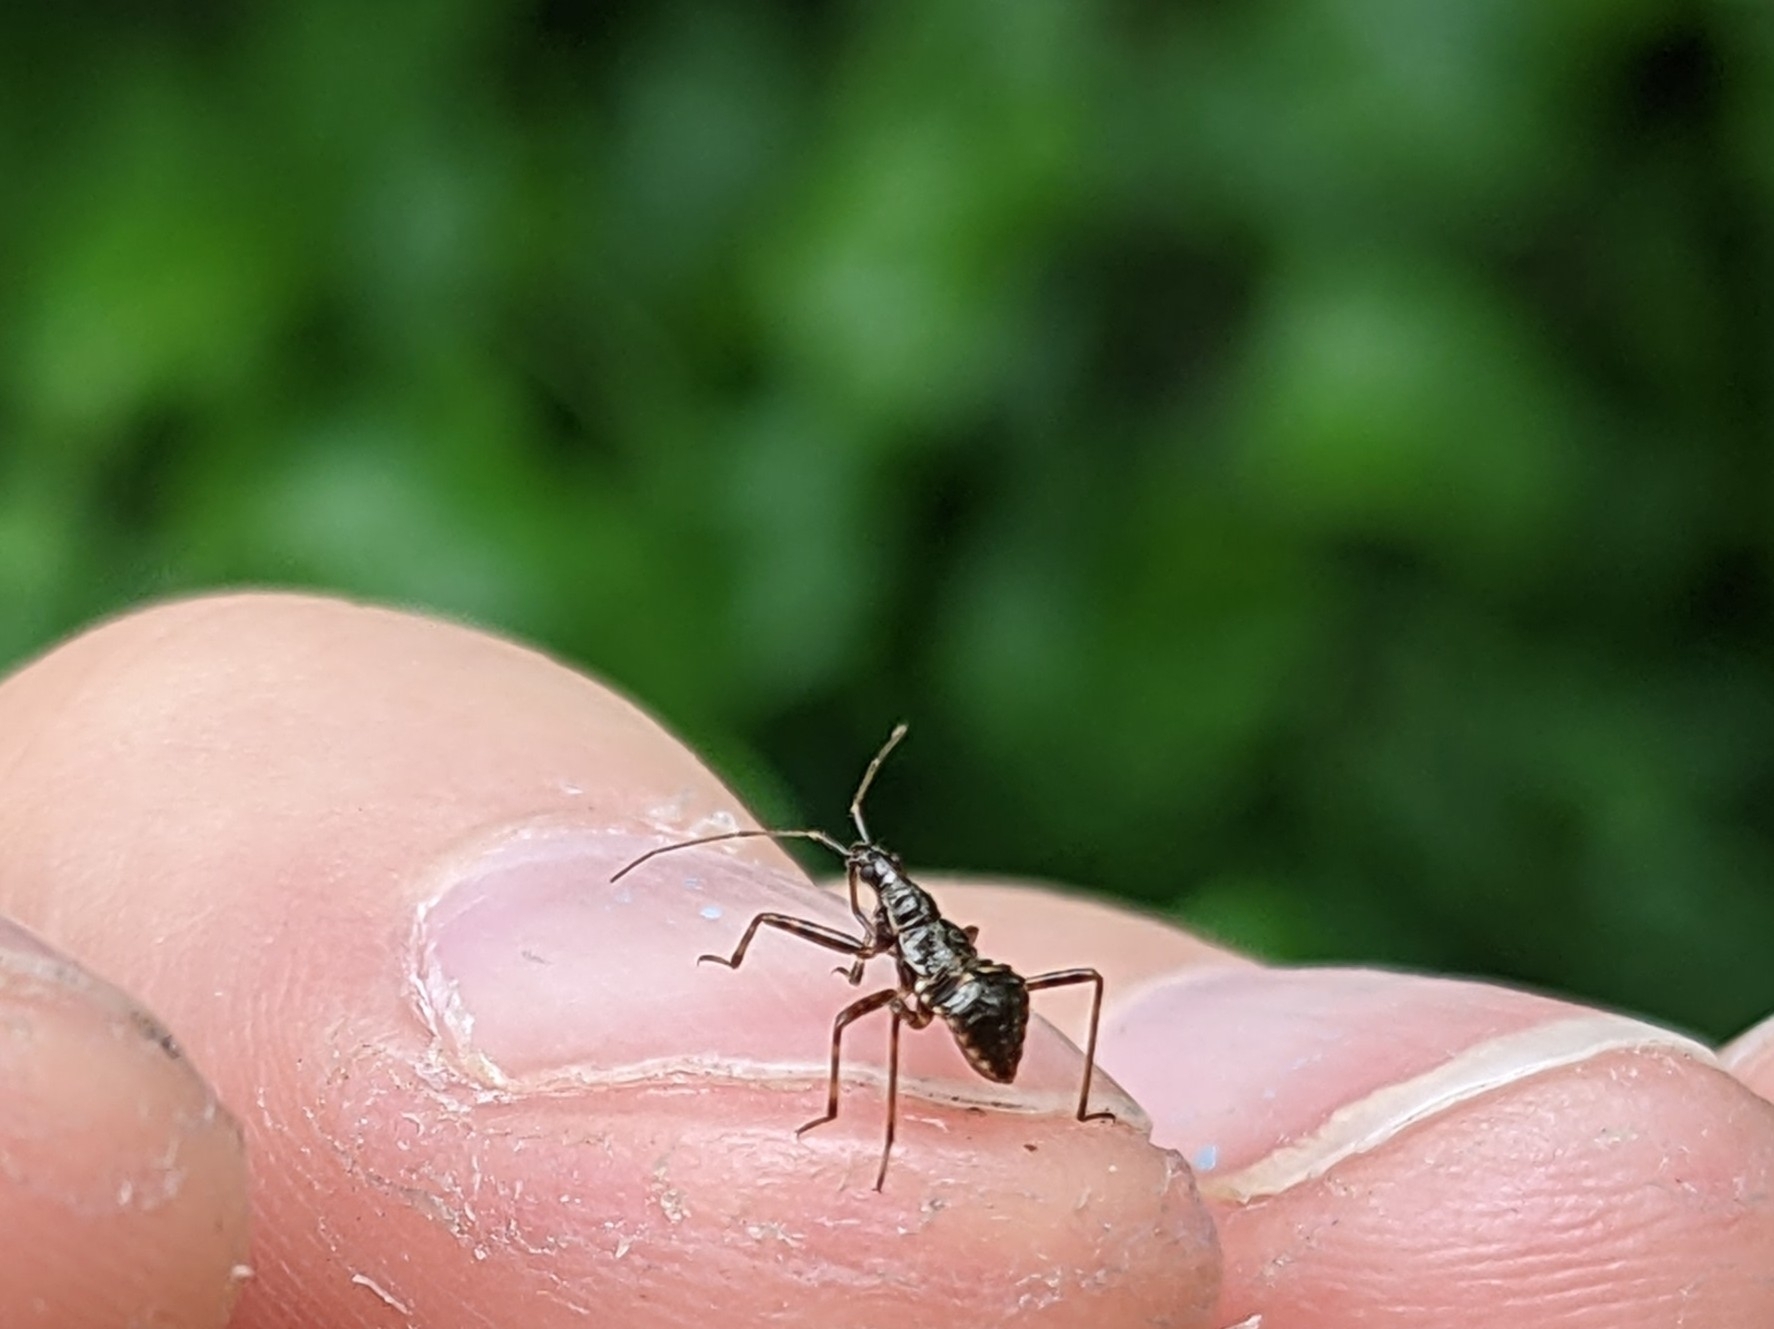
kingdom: Animalia
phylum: Arthropoda
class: Insecta
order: Hemiptera
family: Nabidae
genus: Himacerus
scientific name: Himacerus apterus
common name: Tree damsel bug
